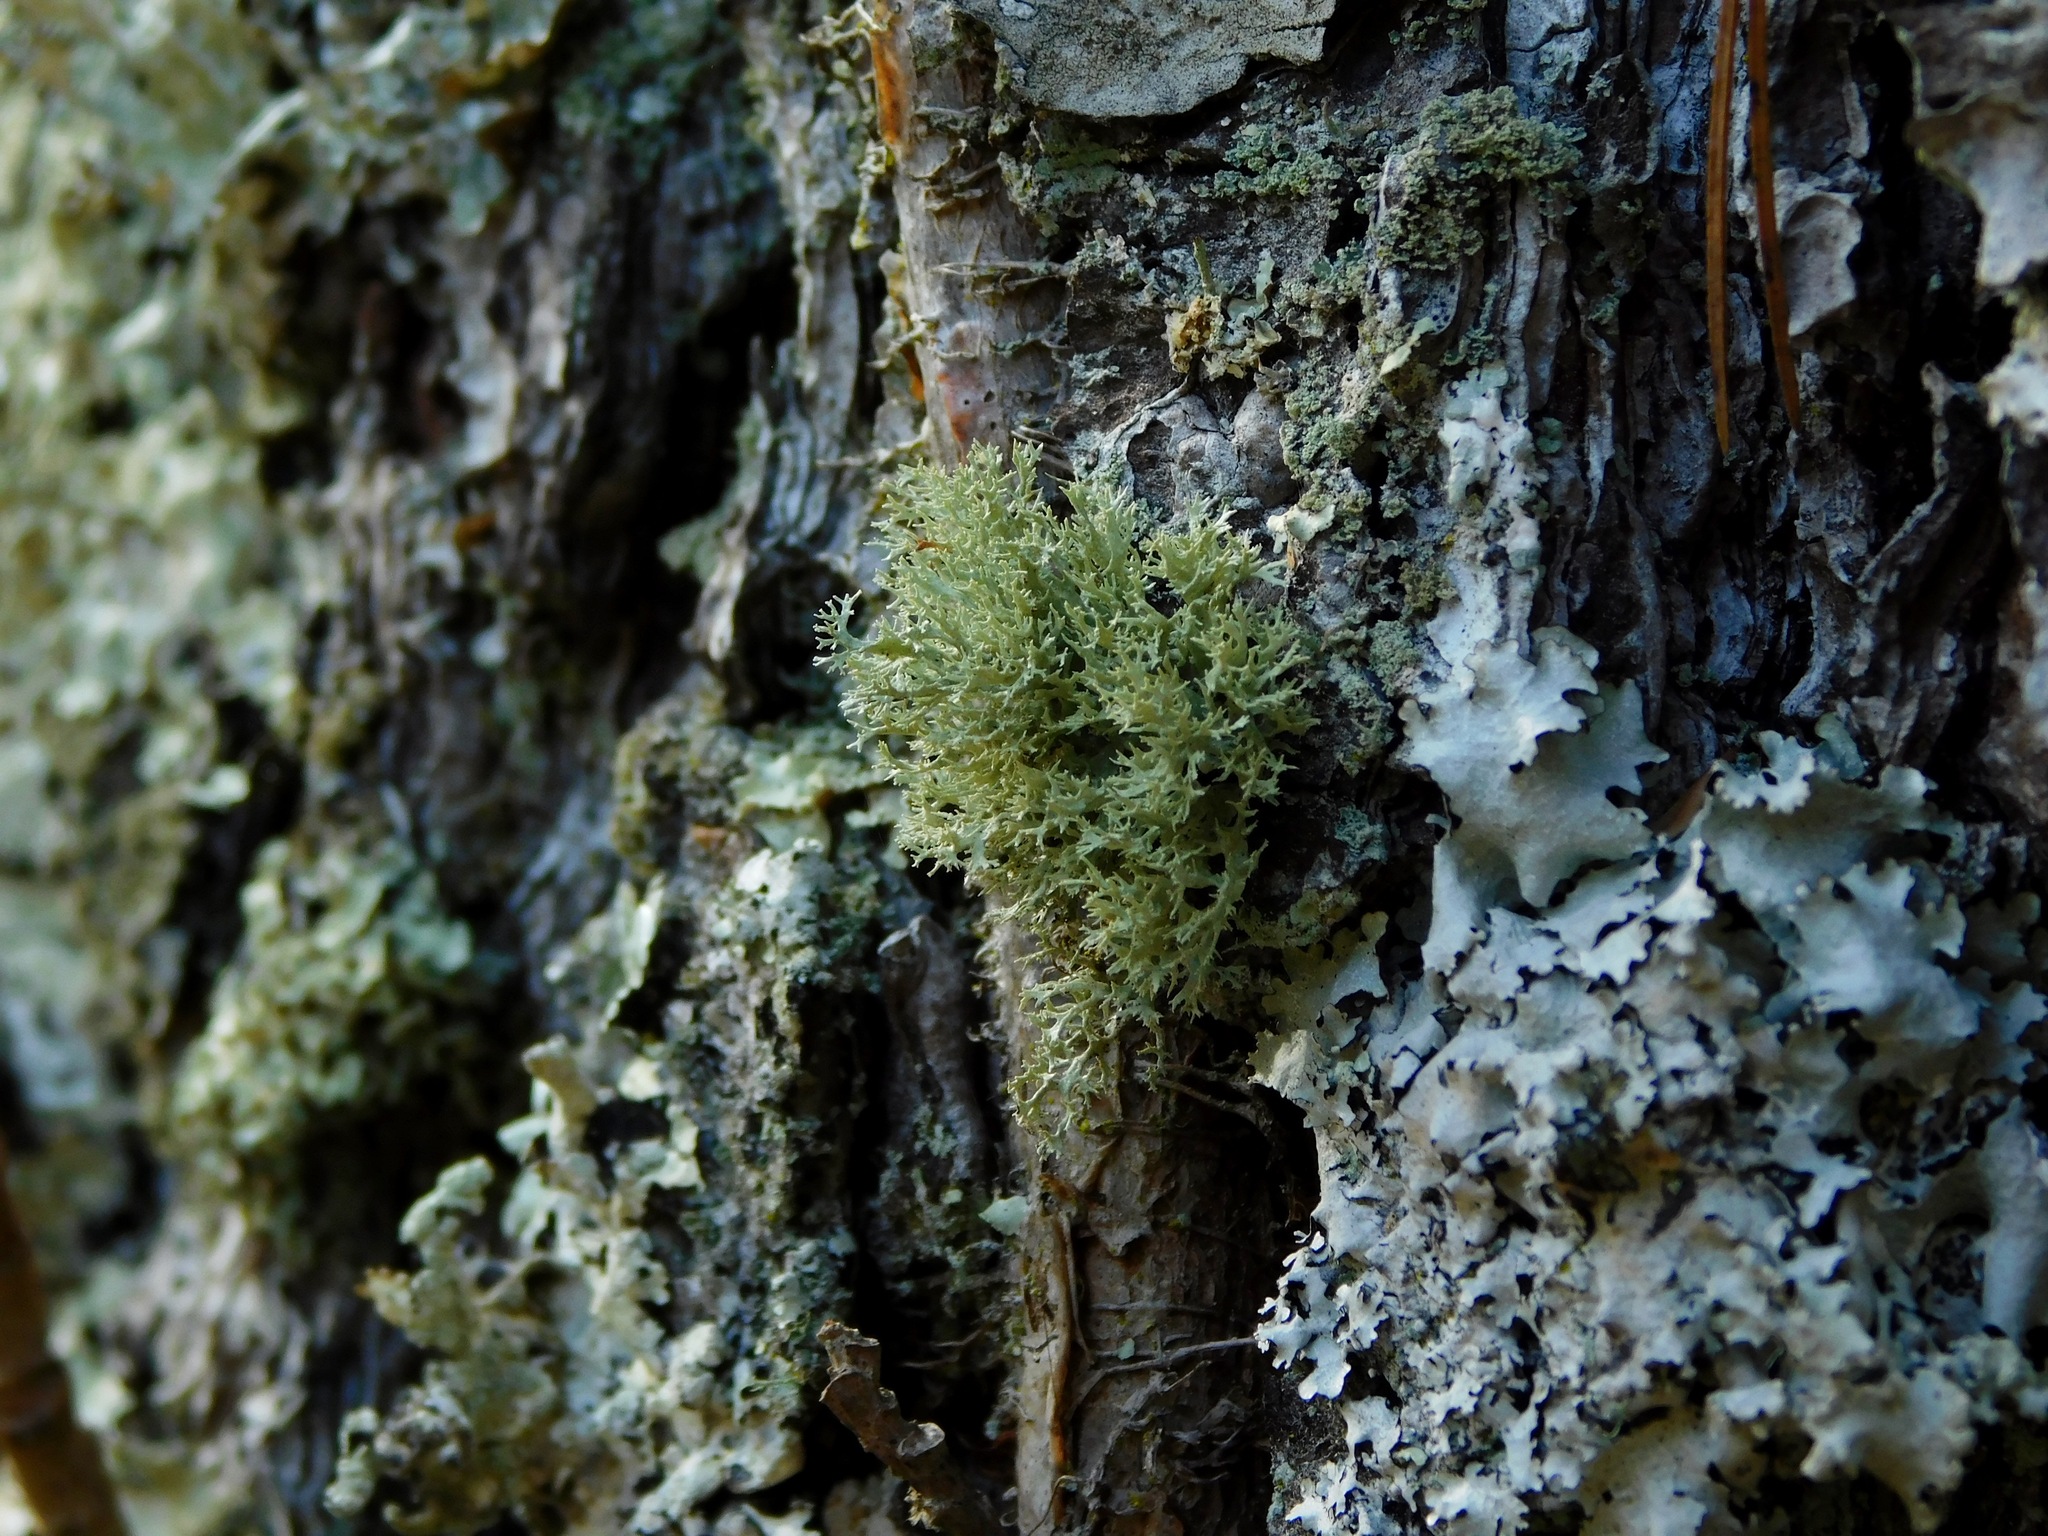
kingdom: Fungi
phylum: Ascomycota
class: Lecanoromycetes
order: Lecanorales
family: Parmeliaceae
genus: Evernia
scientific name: Evernia prunastri
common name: Oak moss
